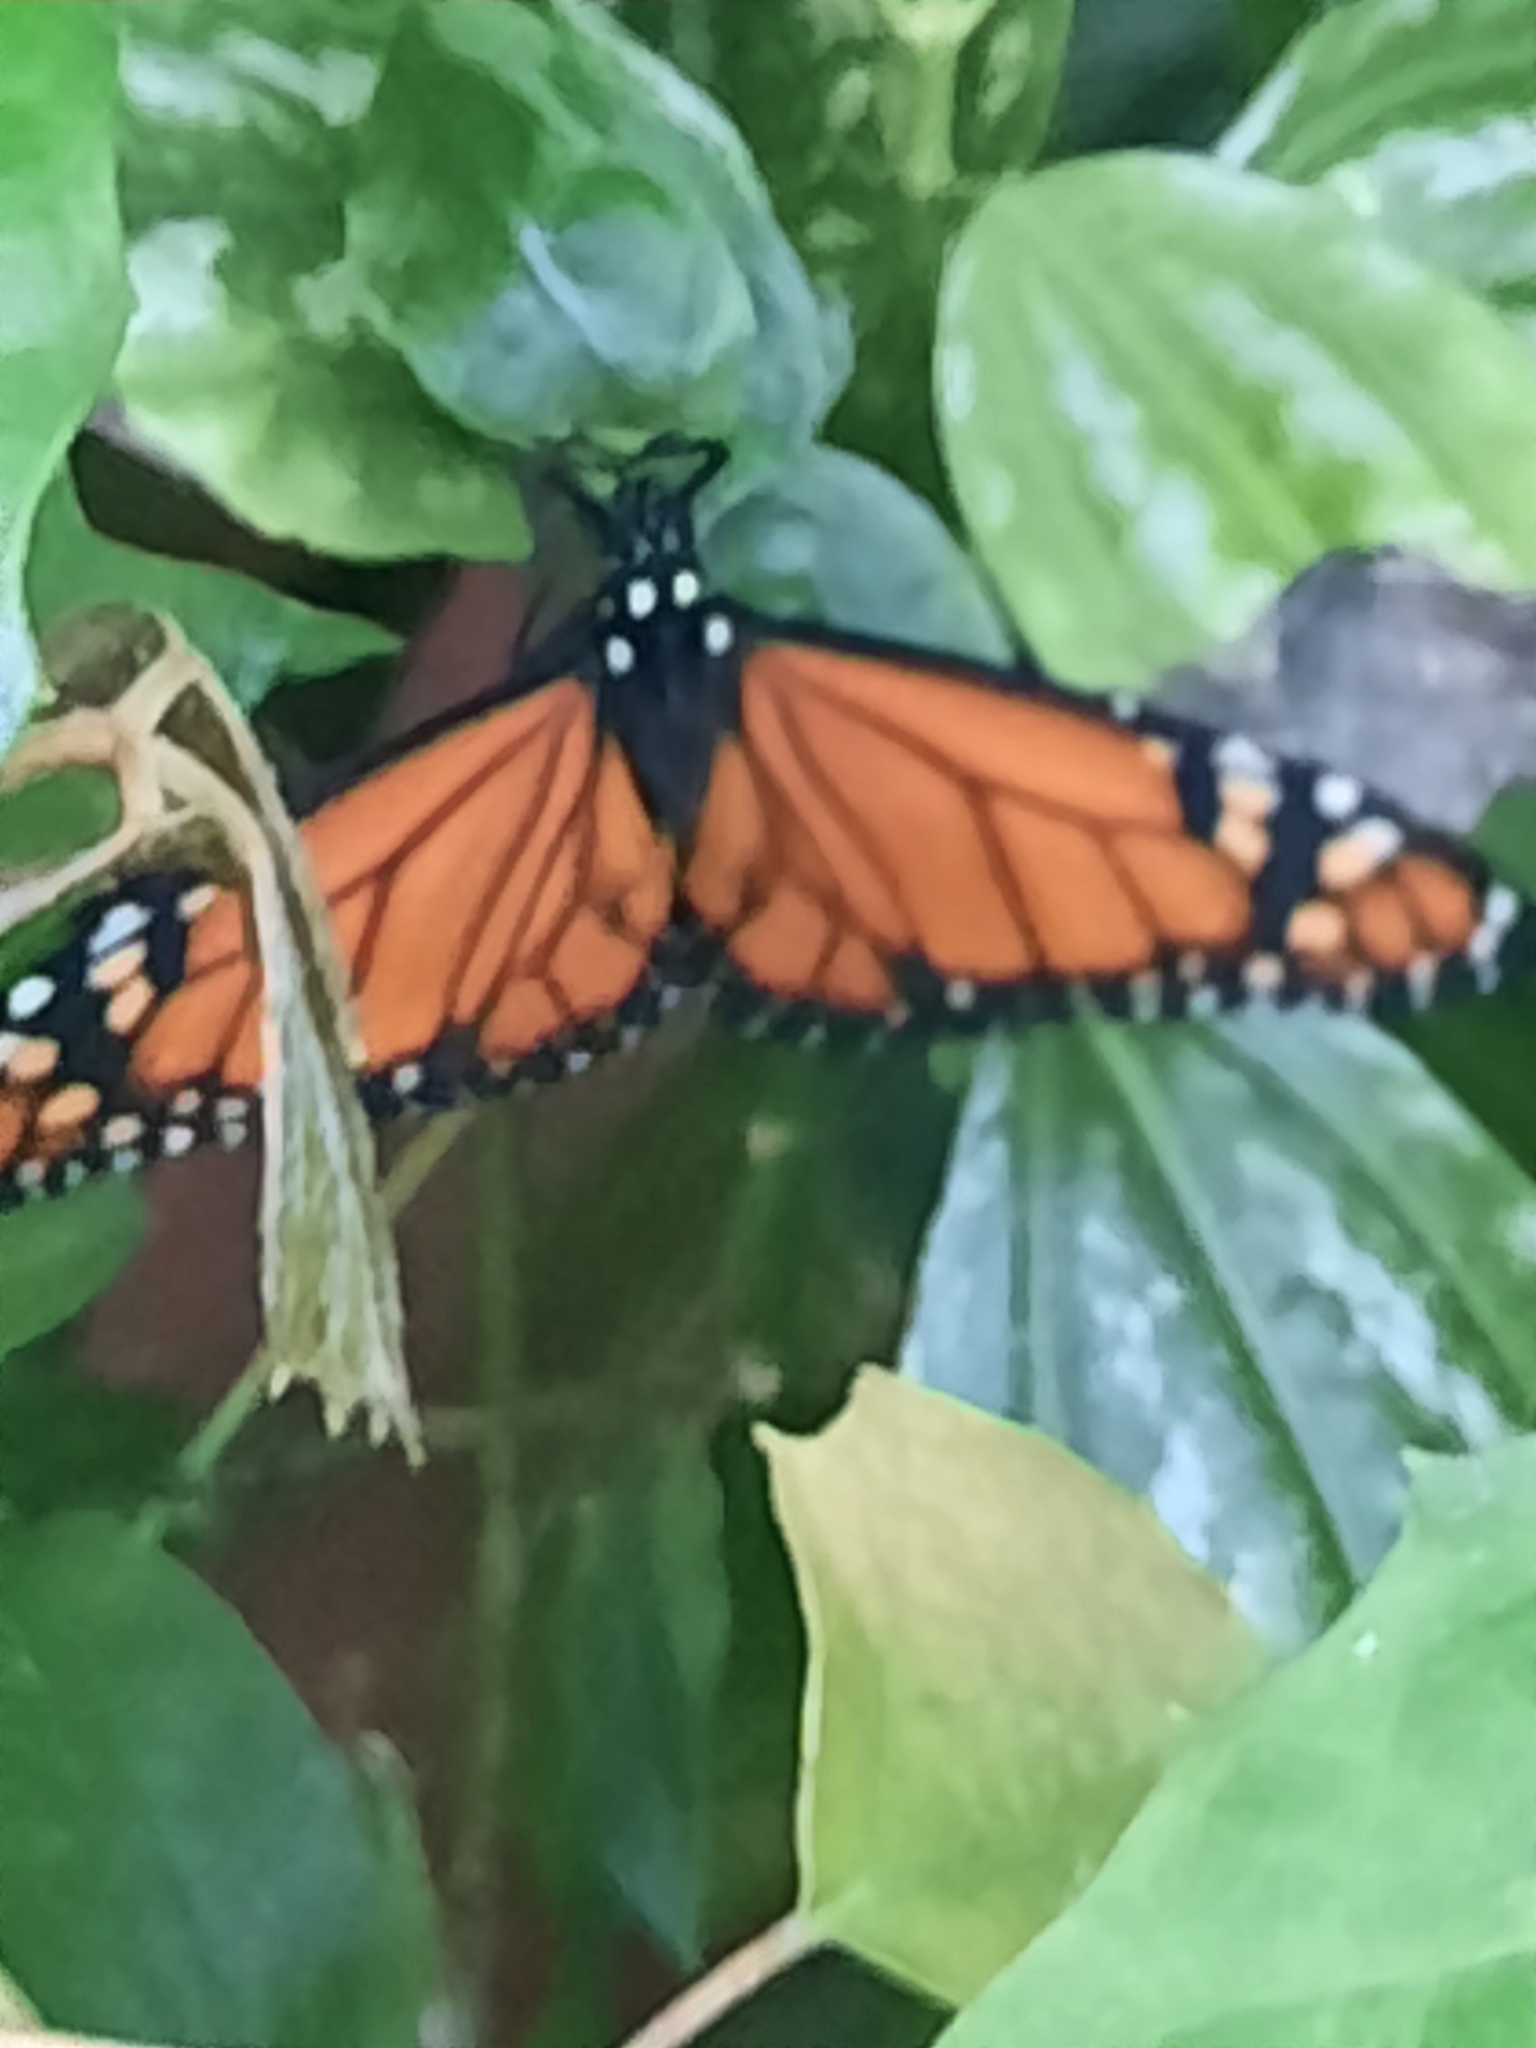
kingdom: Animalia
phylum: Arthropoda
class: Insecta
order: Lepidoptera
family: Nymphalidae
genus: Danaus
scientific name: Danaus erippus
